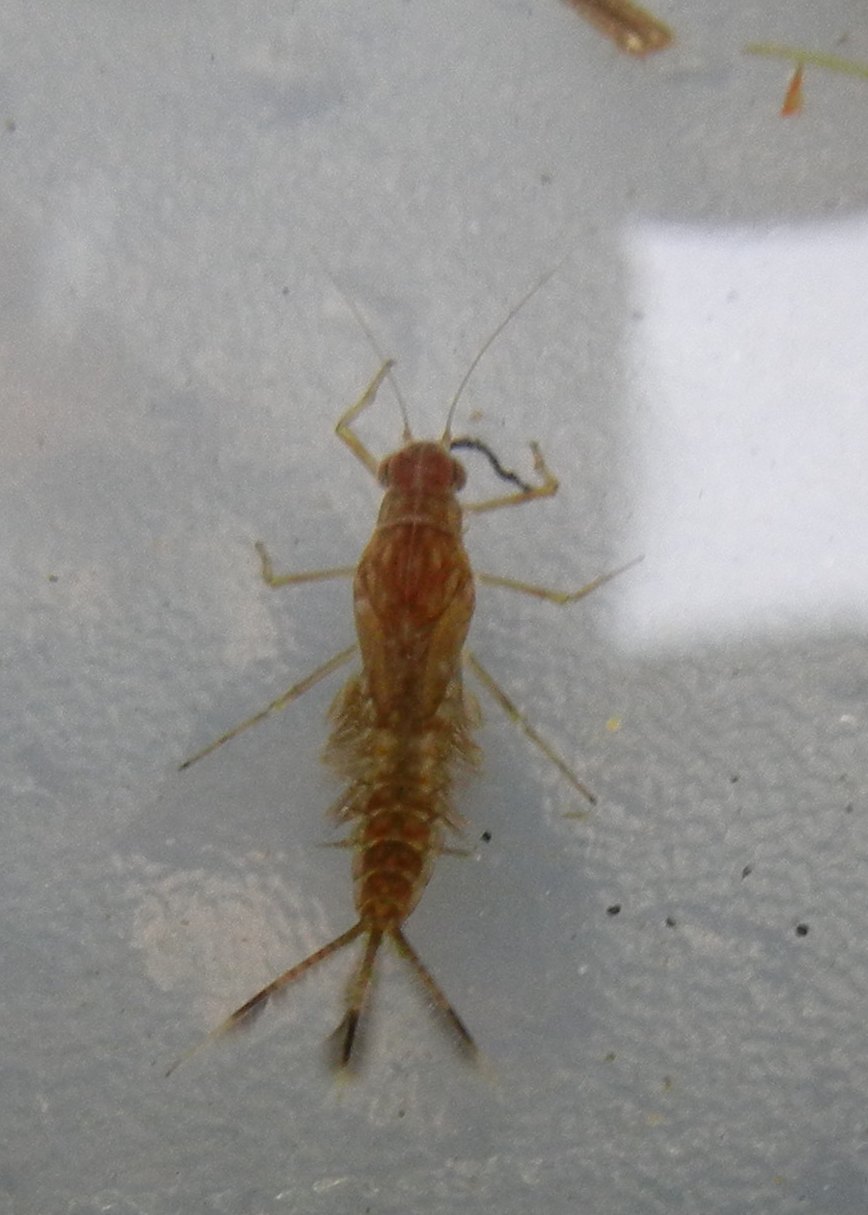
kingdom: Animalia
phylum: Arthropoda
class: Insecta
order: Ephemeroptera
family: Baetidae
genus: Cloeon
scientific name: Cloeon dipterum
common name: Pond olive
